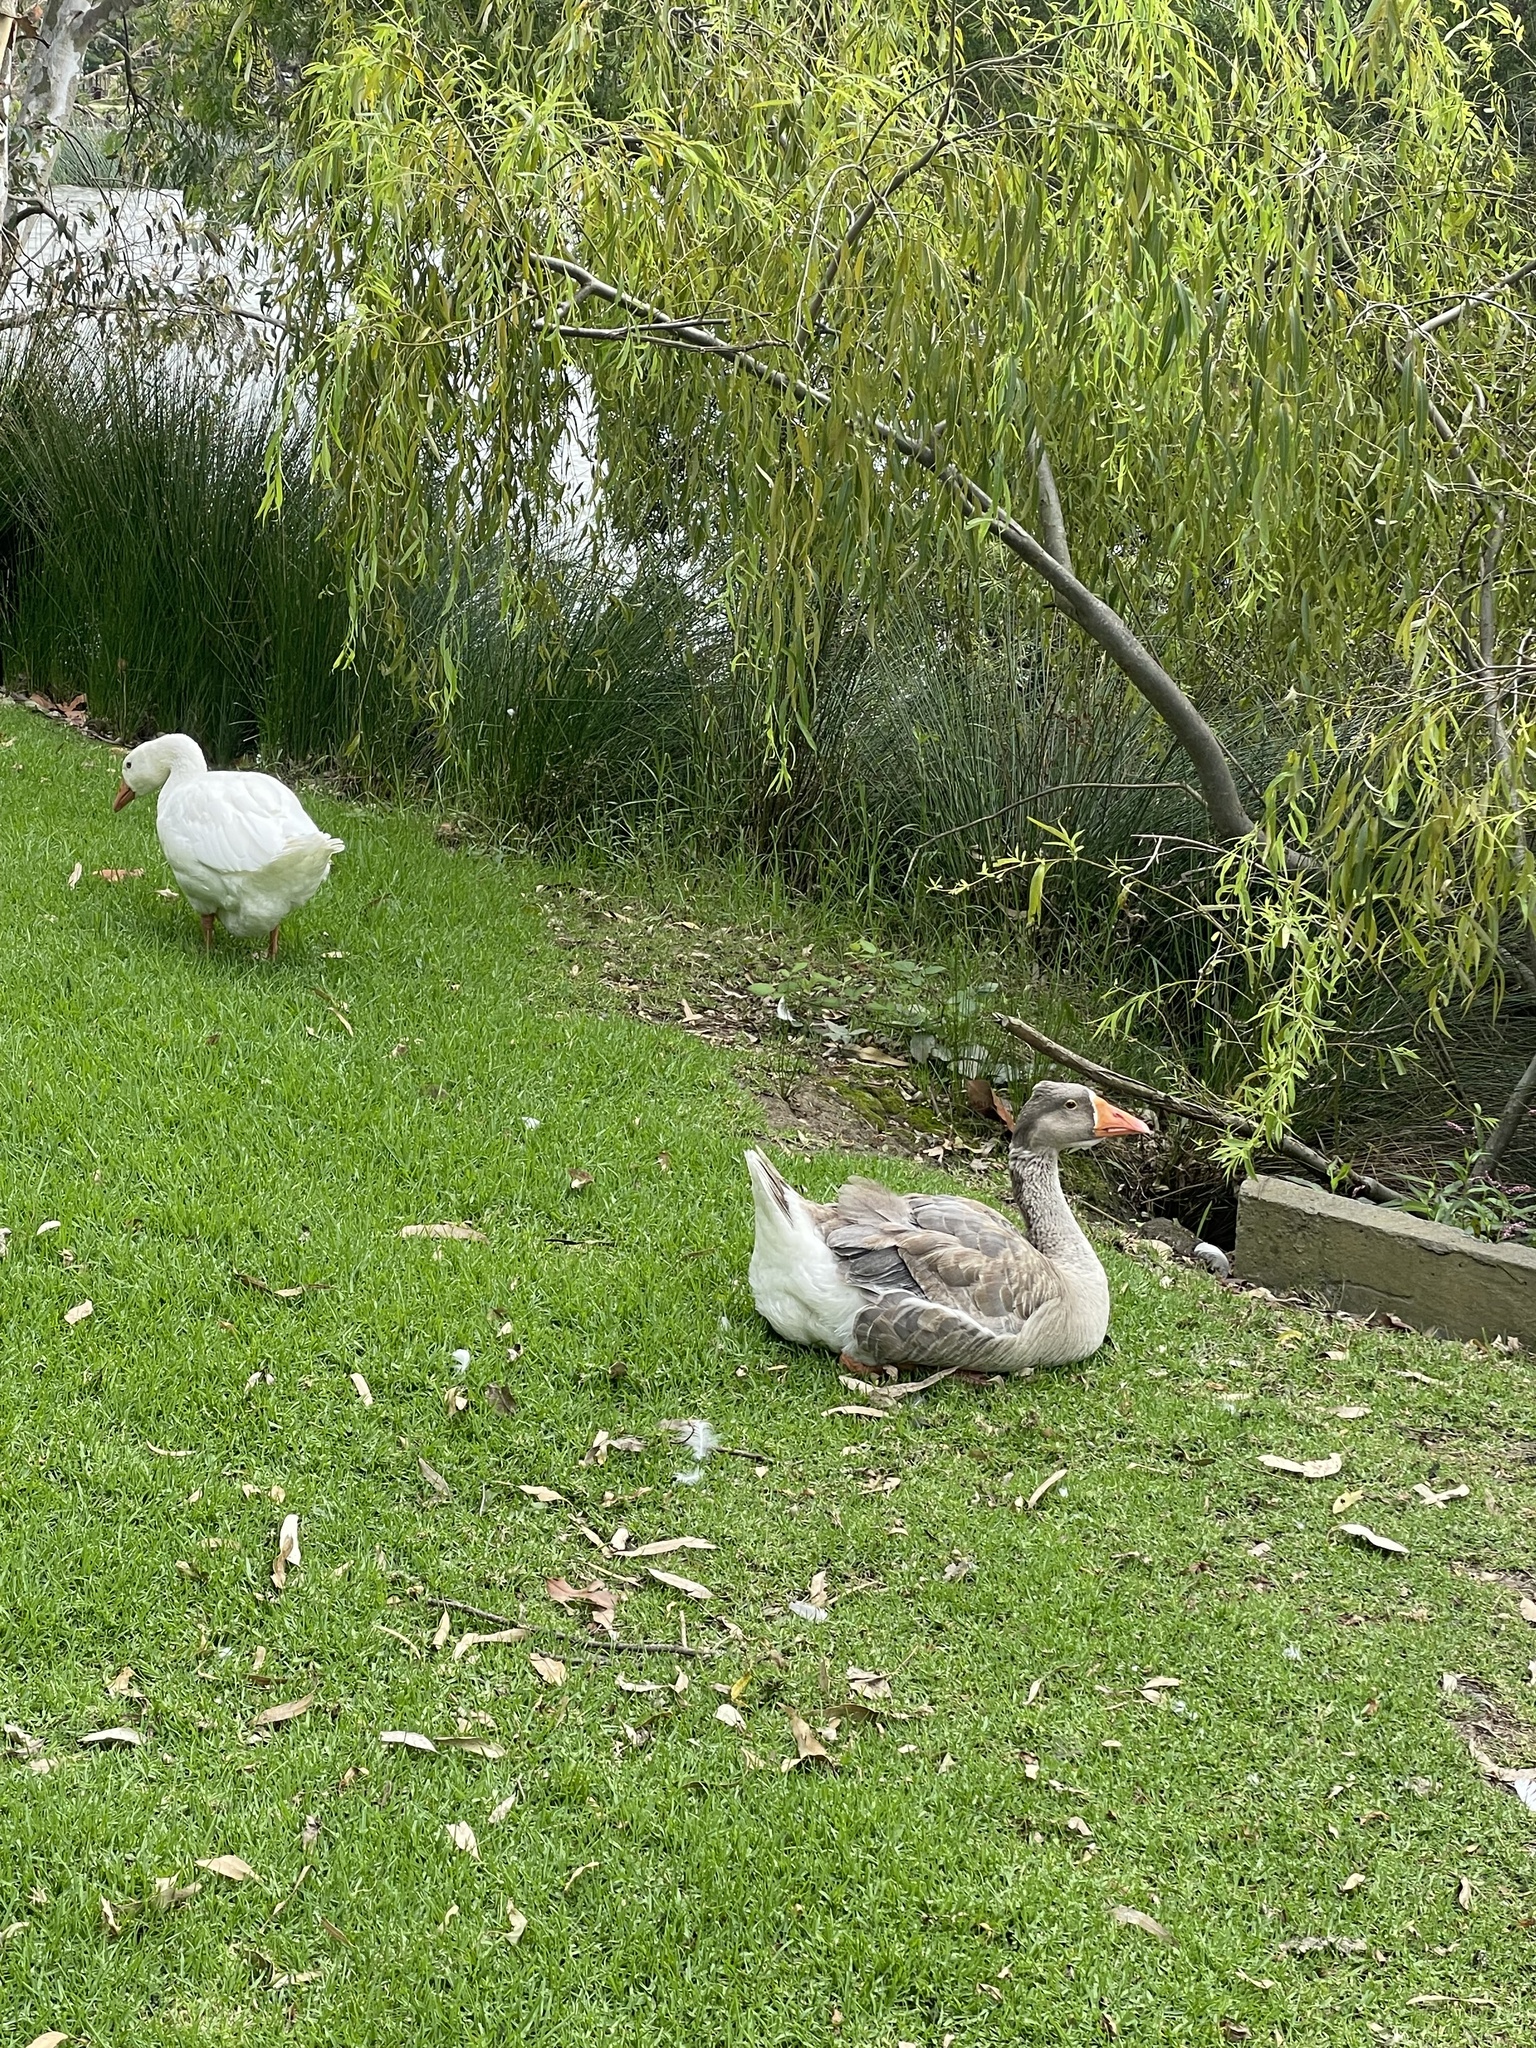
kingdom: Animalia
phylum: Chordata
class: Aves
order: Anseriformes
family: Anatidae
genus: Anser
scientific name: Anser anser
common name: Greylag goose
